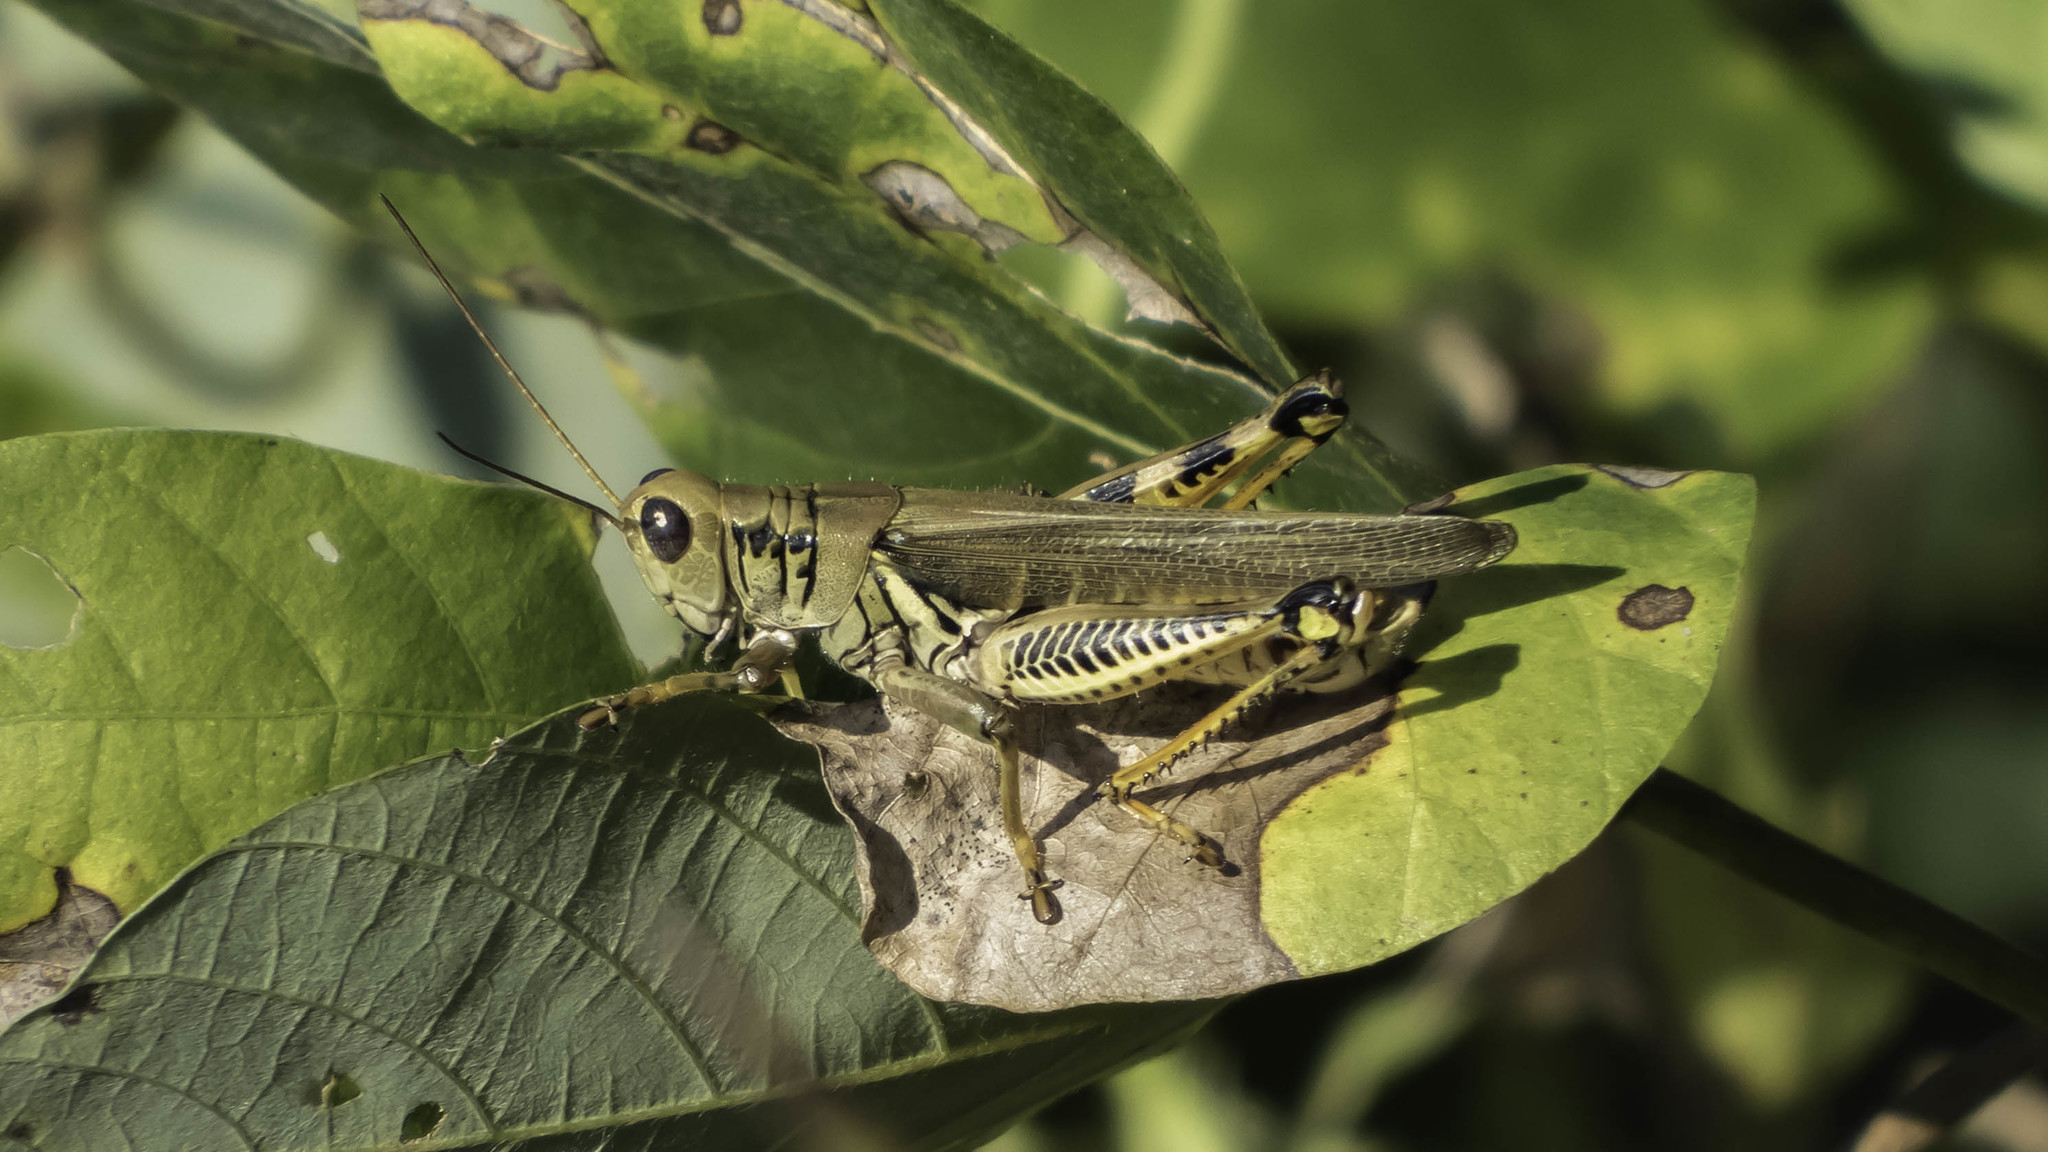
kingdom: Animalia
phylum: Arthropoda
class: Insecta
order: Orthoptera
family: Acrididae
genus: Melanoplus
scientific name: Melanoplus differentialis
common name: Differential grasshopper
